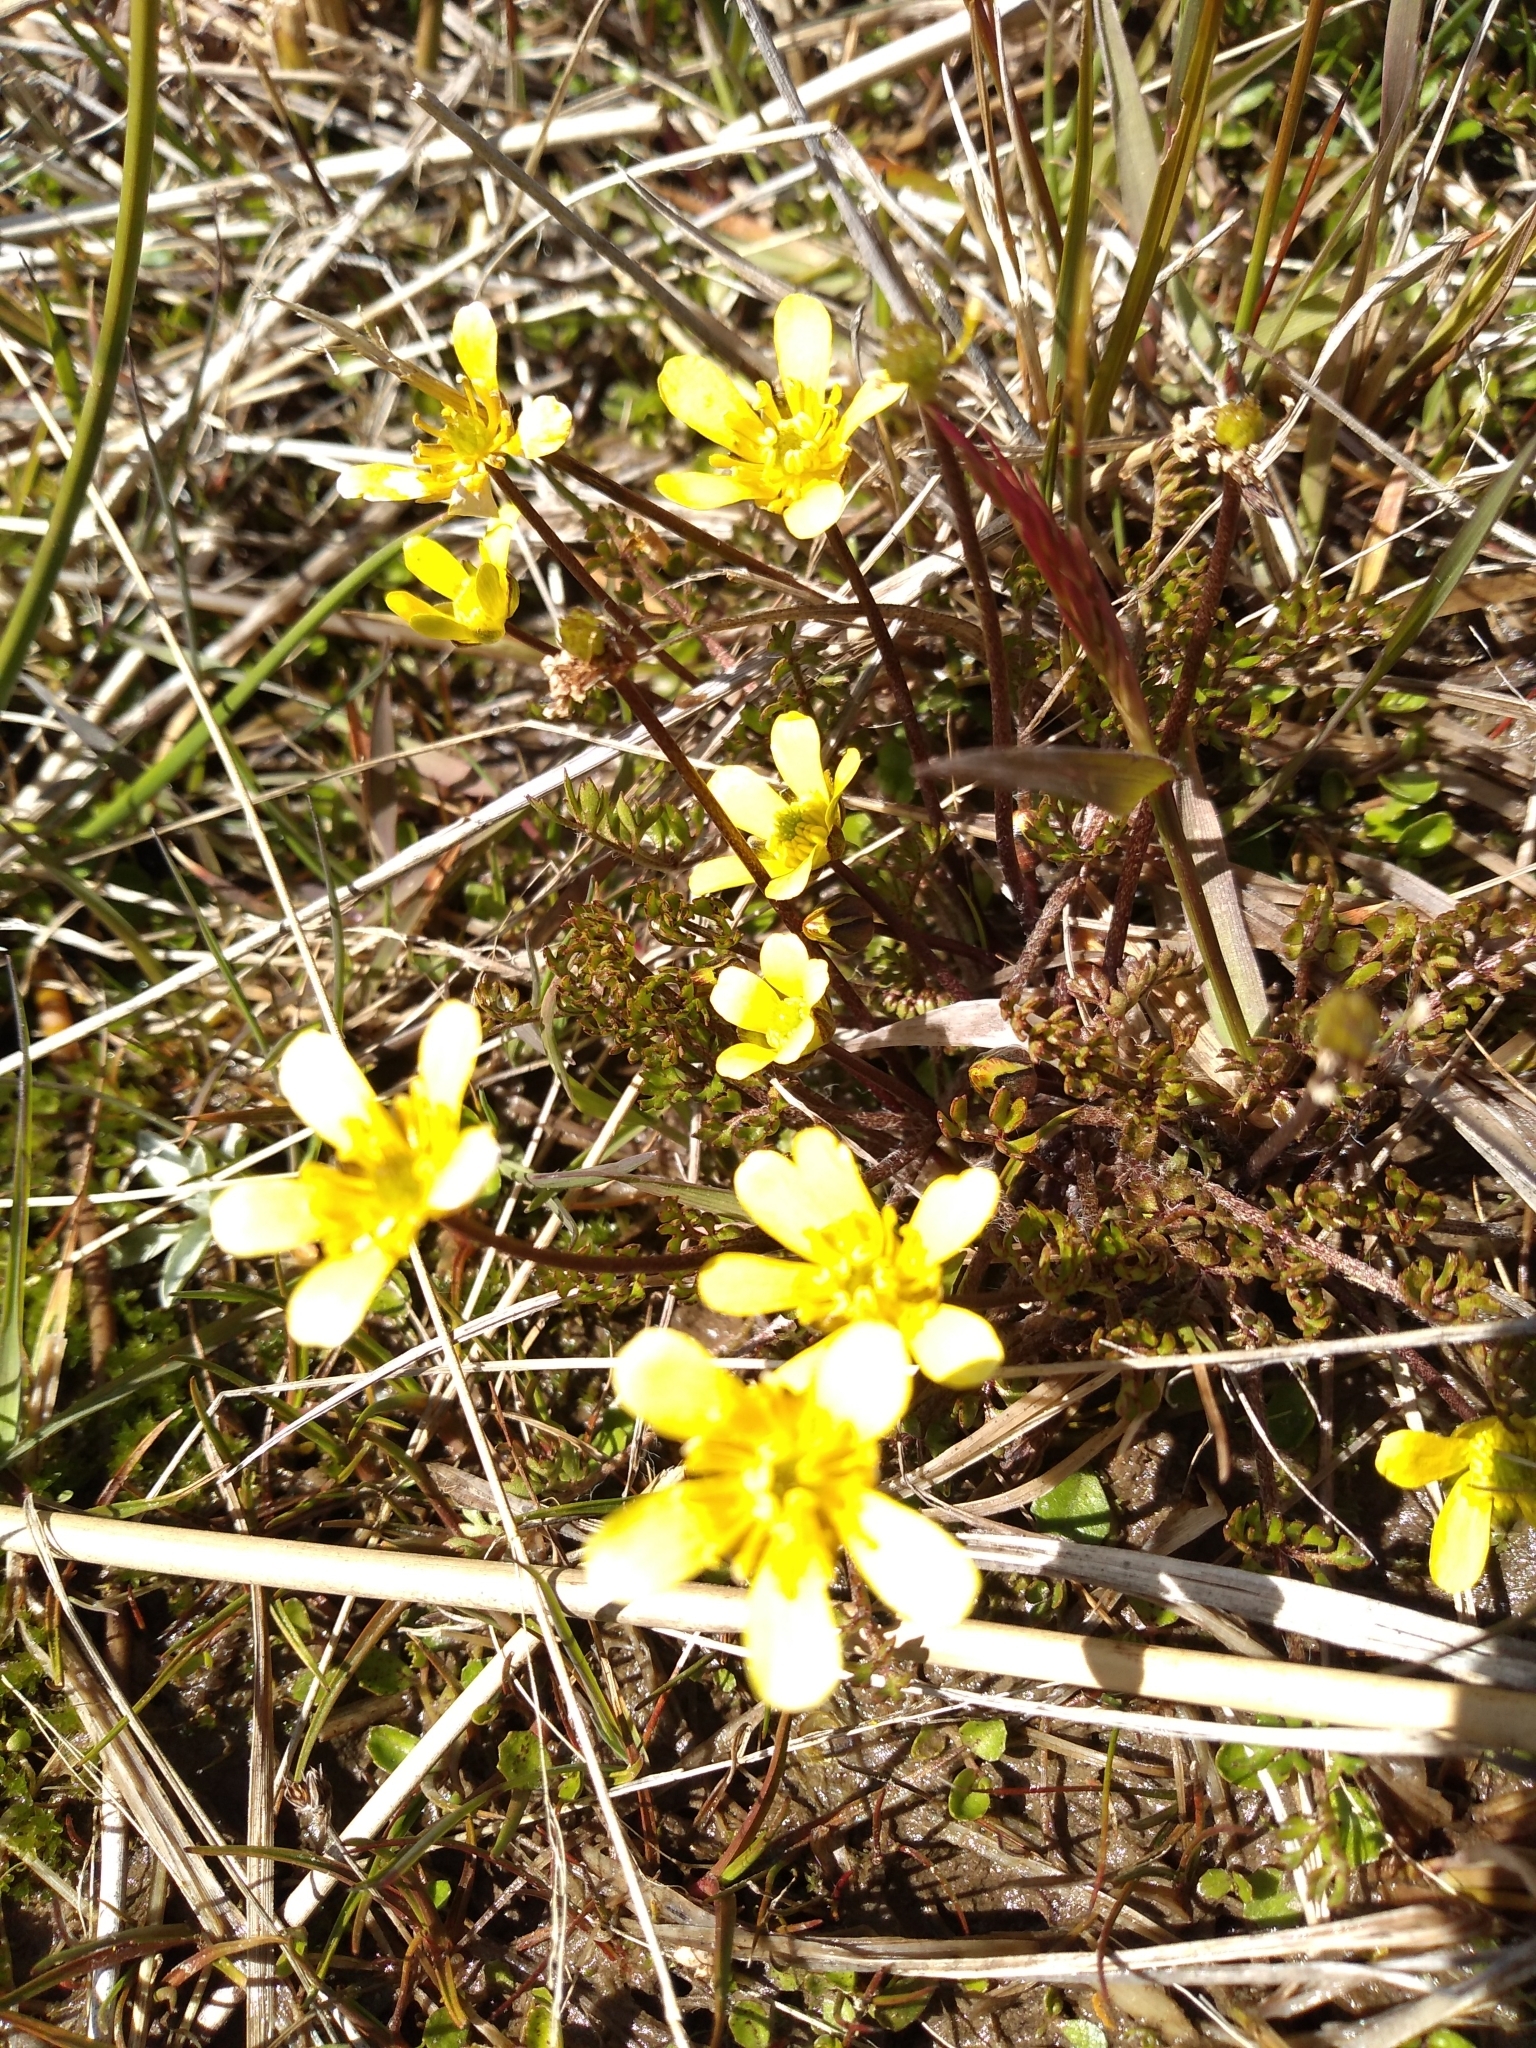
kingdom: Plantae
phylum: Tracheophyta
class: Magnoliopsida
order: Ranunculales
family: Ranunculaceae
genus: Ranunculus
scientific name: Ranunculus gracilipes
